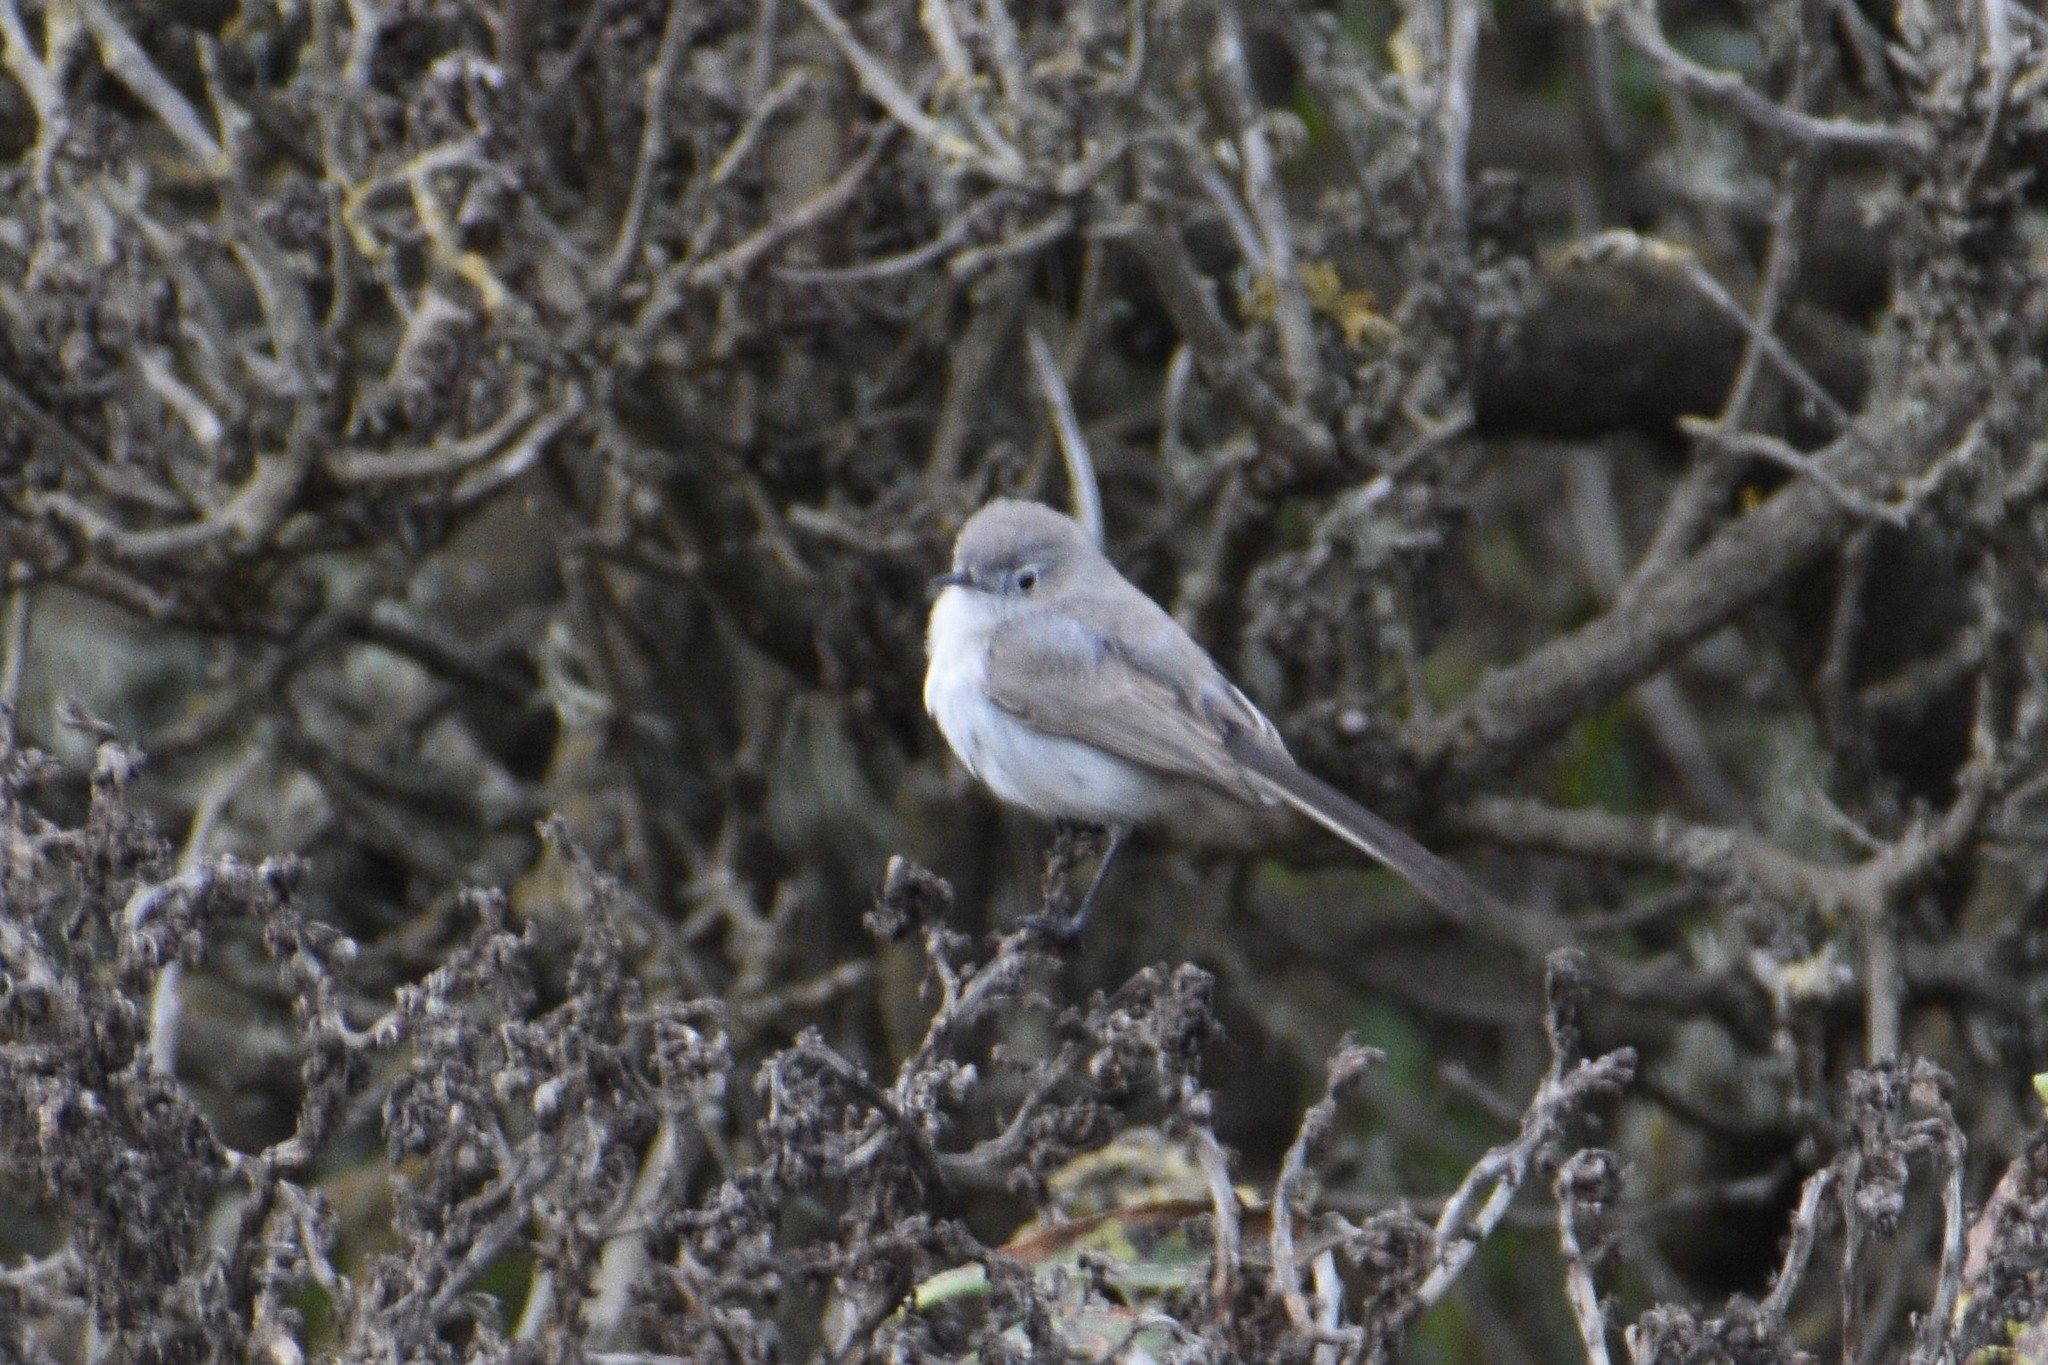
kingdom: Animalia
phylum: Chordata
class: Aves
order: Passeriformes
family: Polioptilidae
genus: Polioptila
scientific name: Polioptila caerulea
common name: Blue-gray gnatcatcher
